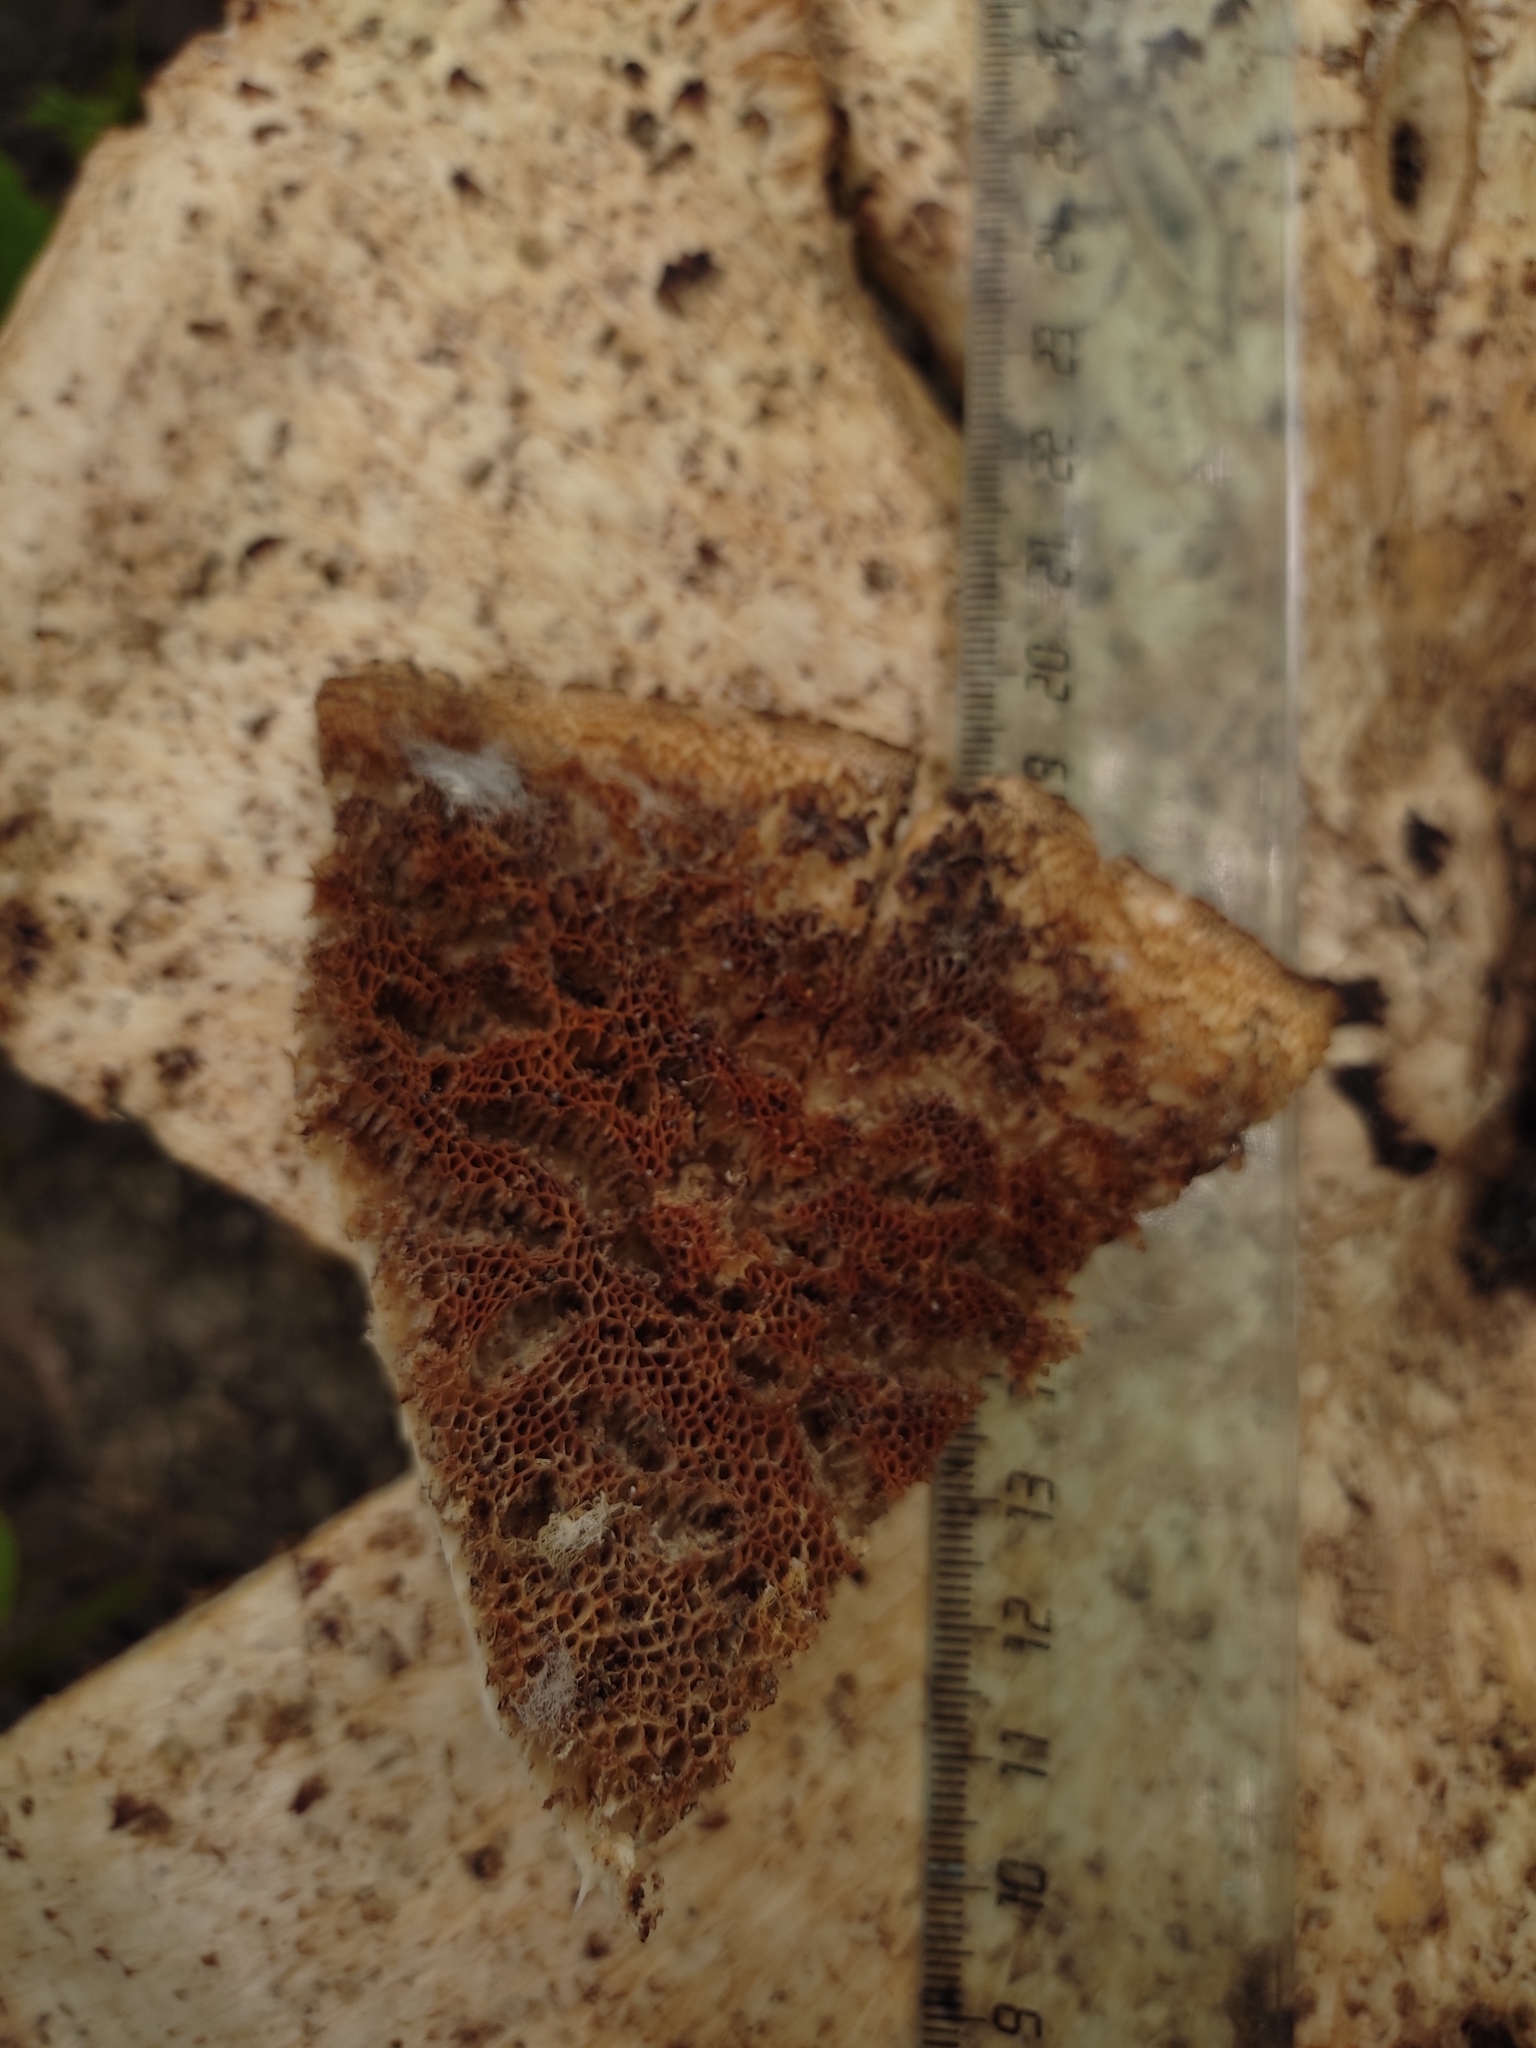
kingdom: Fungi
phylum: Basidiomycota
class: Agaricomycetes
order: Polyporales
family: Polyporaceae
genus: Cerioporus
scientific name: Cerioporus squamosus
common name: Dryad's saddle
